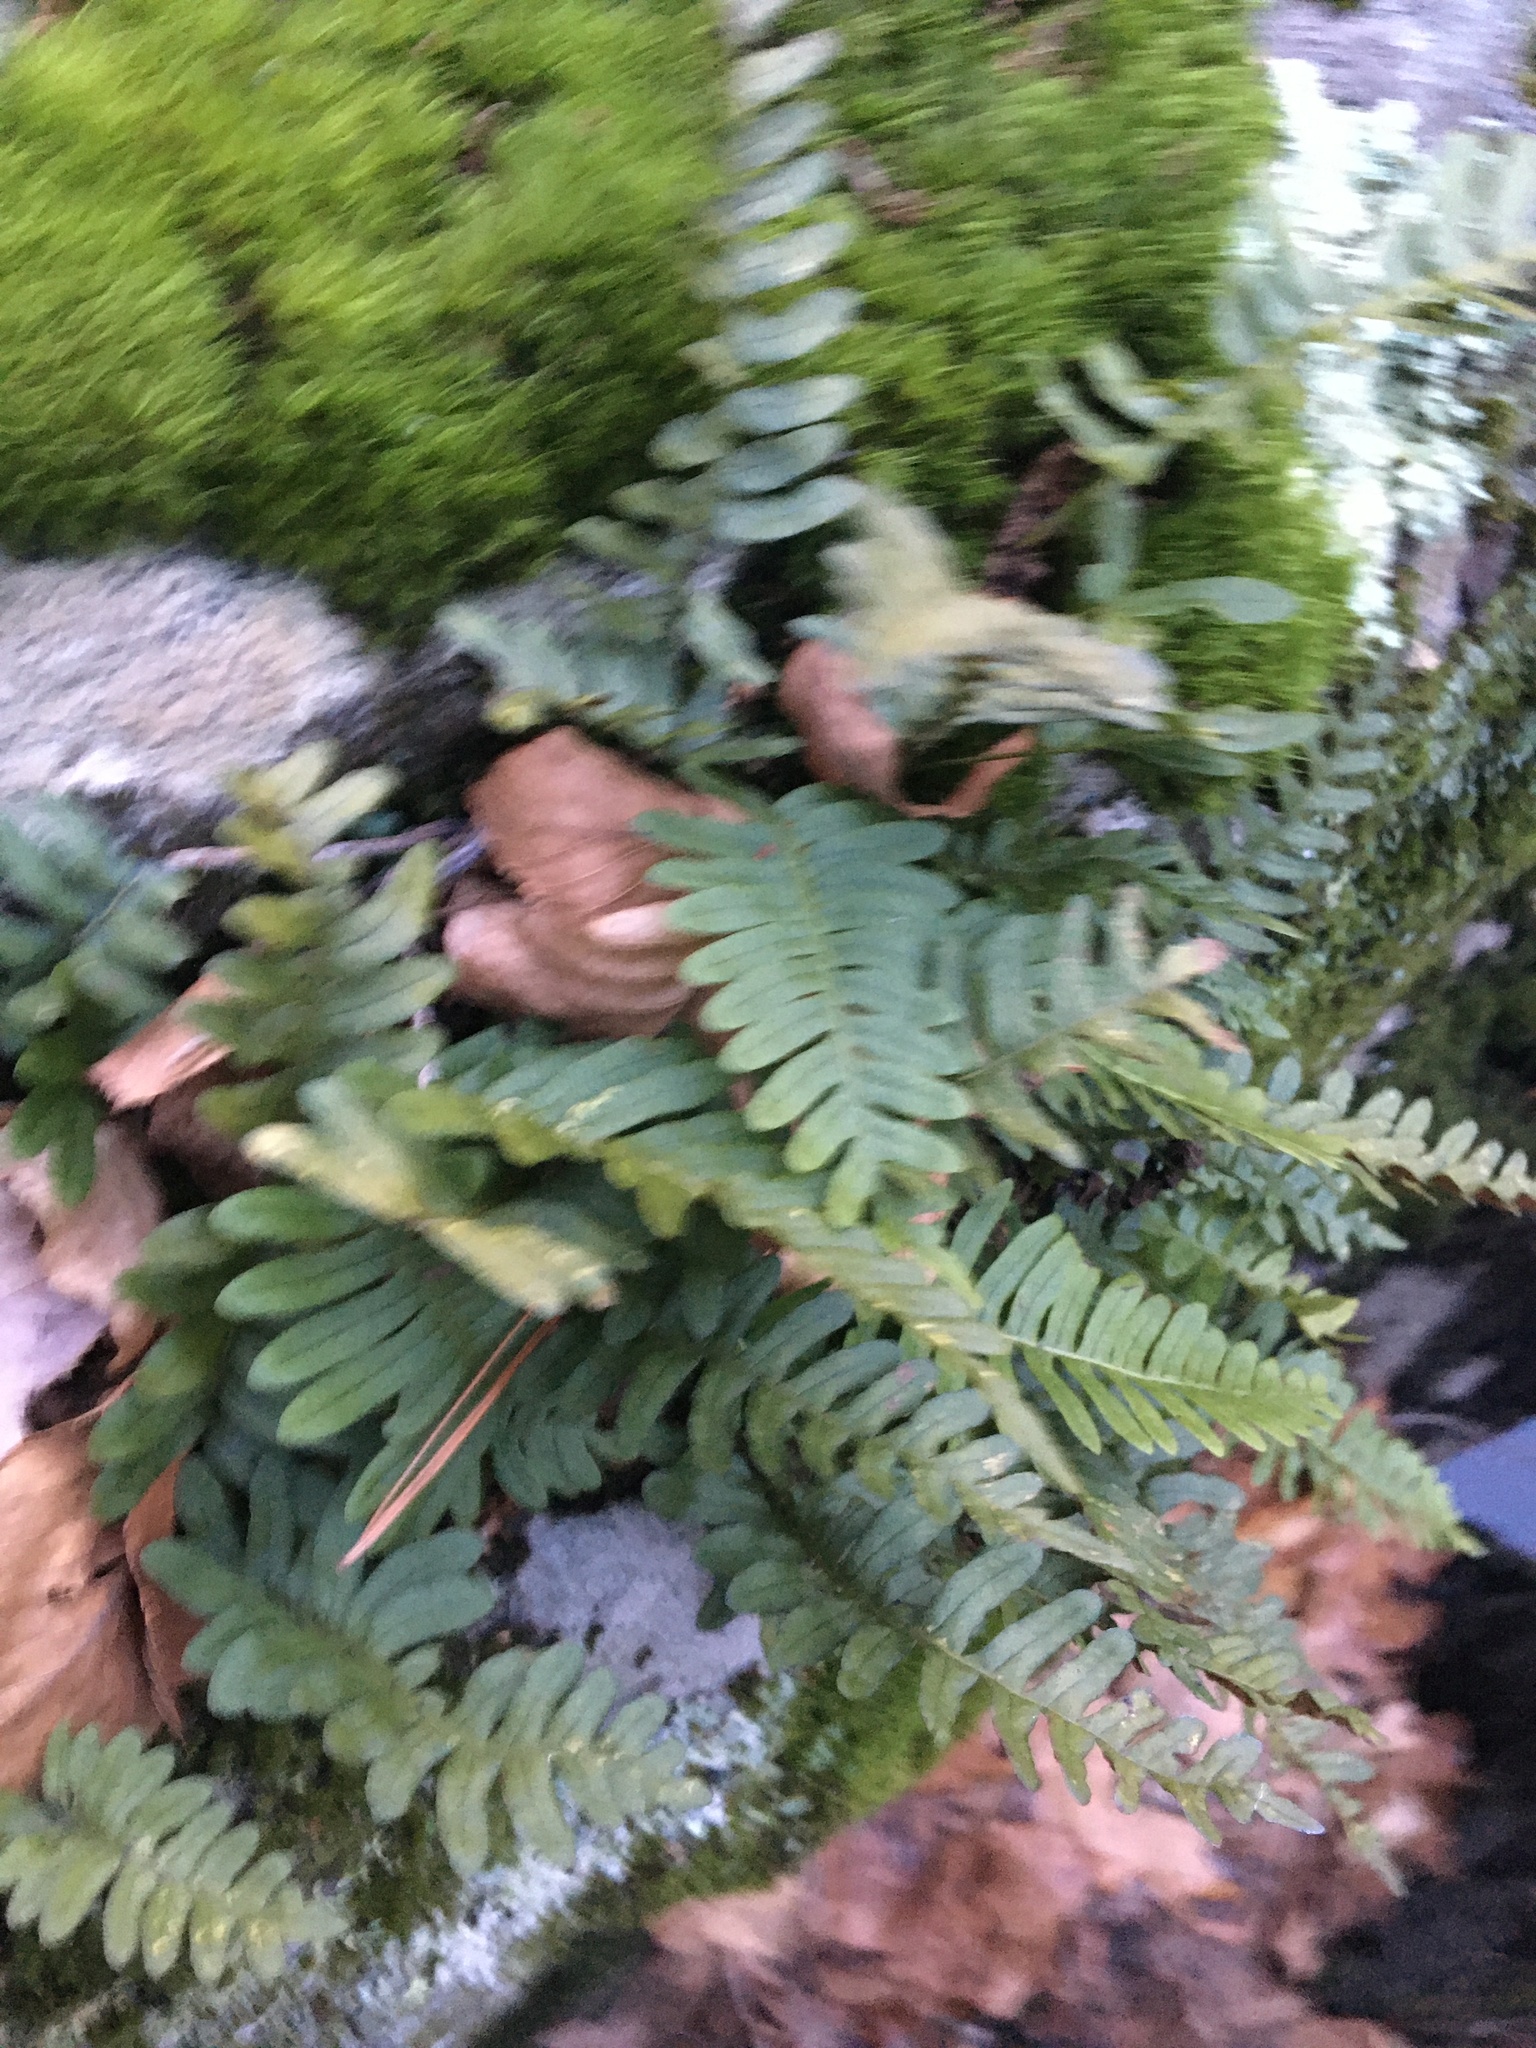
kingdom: Plantae
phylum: Tracheophyta
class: Polypodiopsida
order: Polypodiales
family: Polypodiaceae
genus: Polypodium
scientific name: Polypodium
